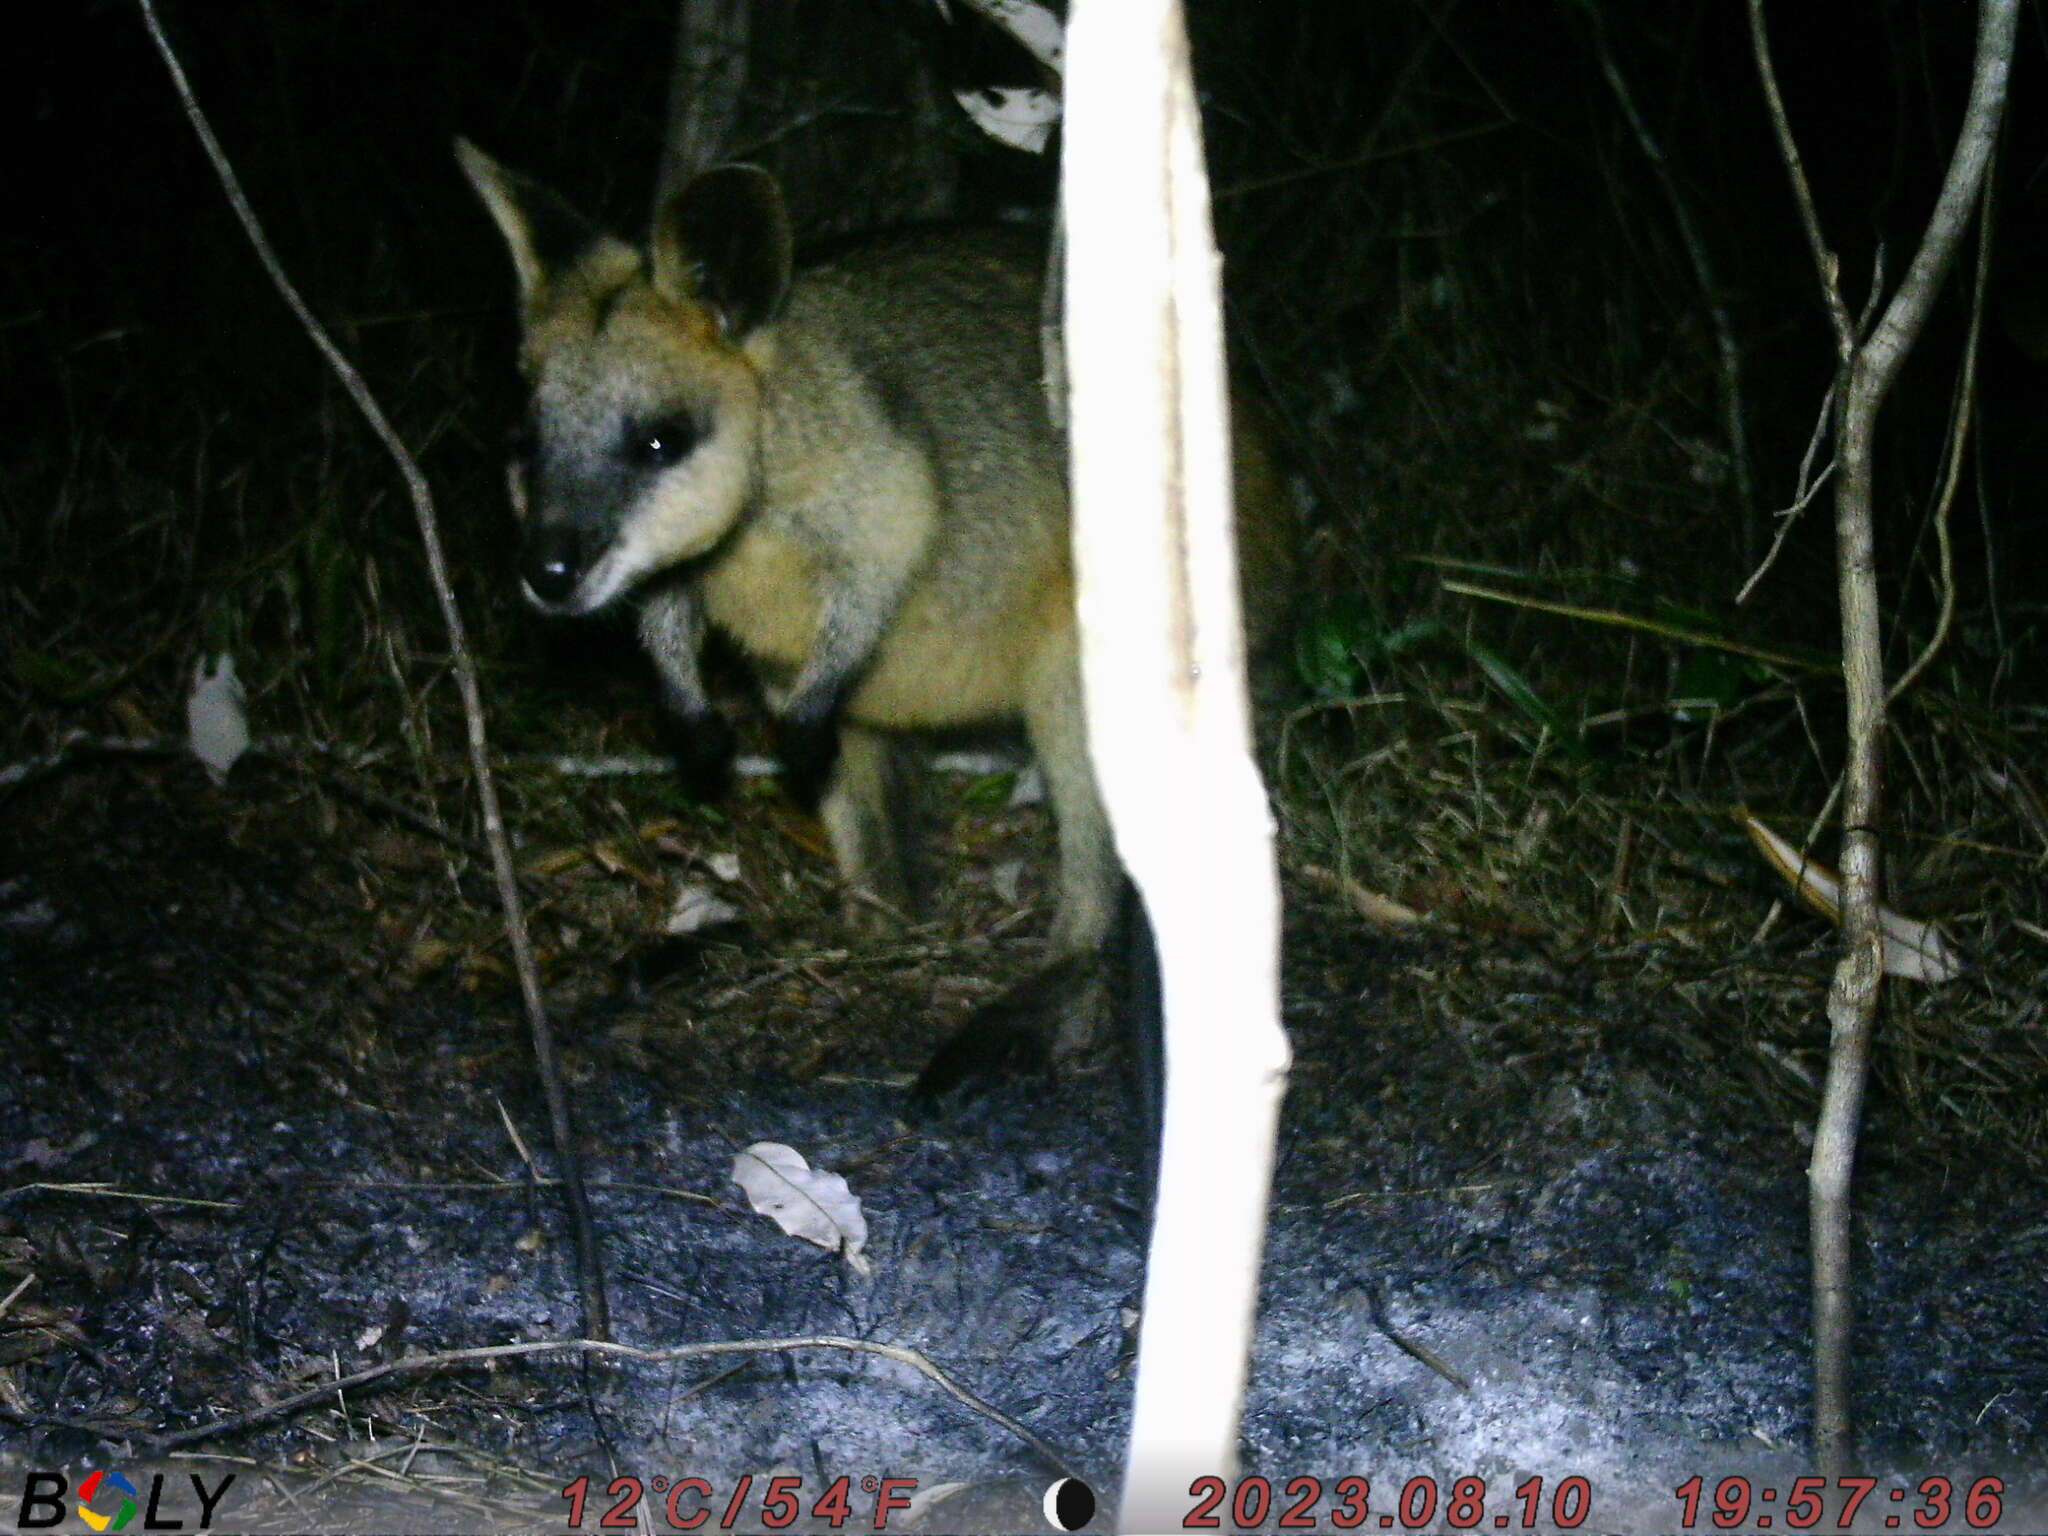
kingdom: Animalia
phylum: Chordata
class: Mammalia
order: Diprotodontia
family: Macropodidae
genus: Wallabia
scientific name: Wallabia bicolor
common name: Swamp wallaby
